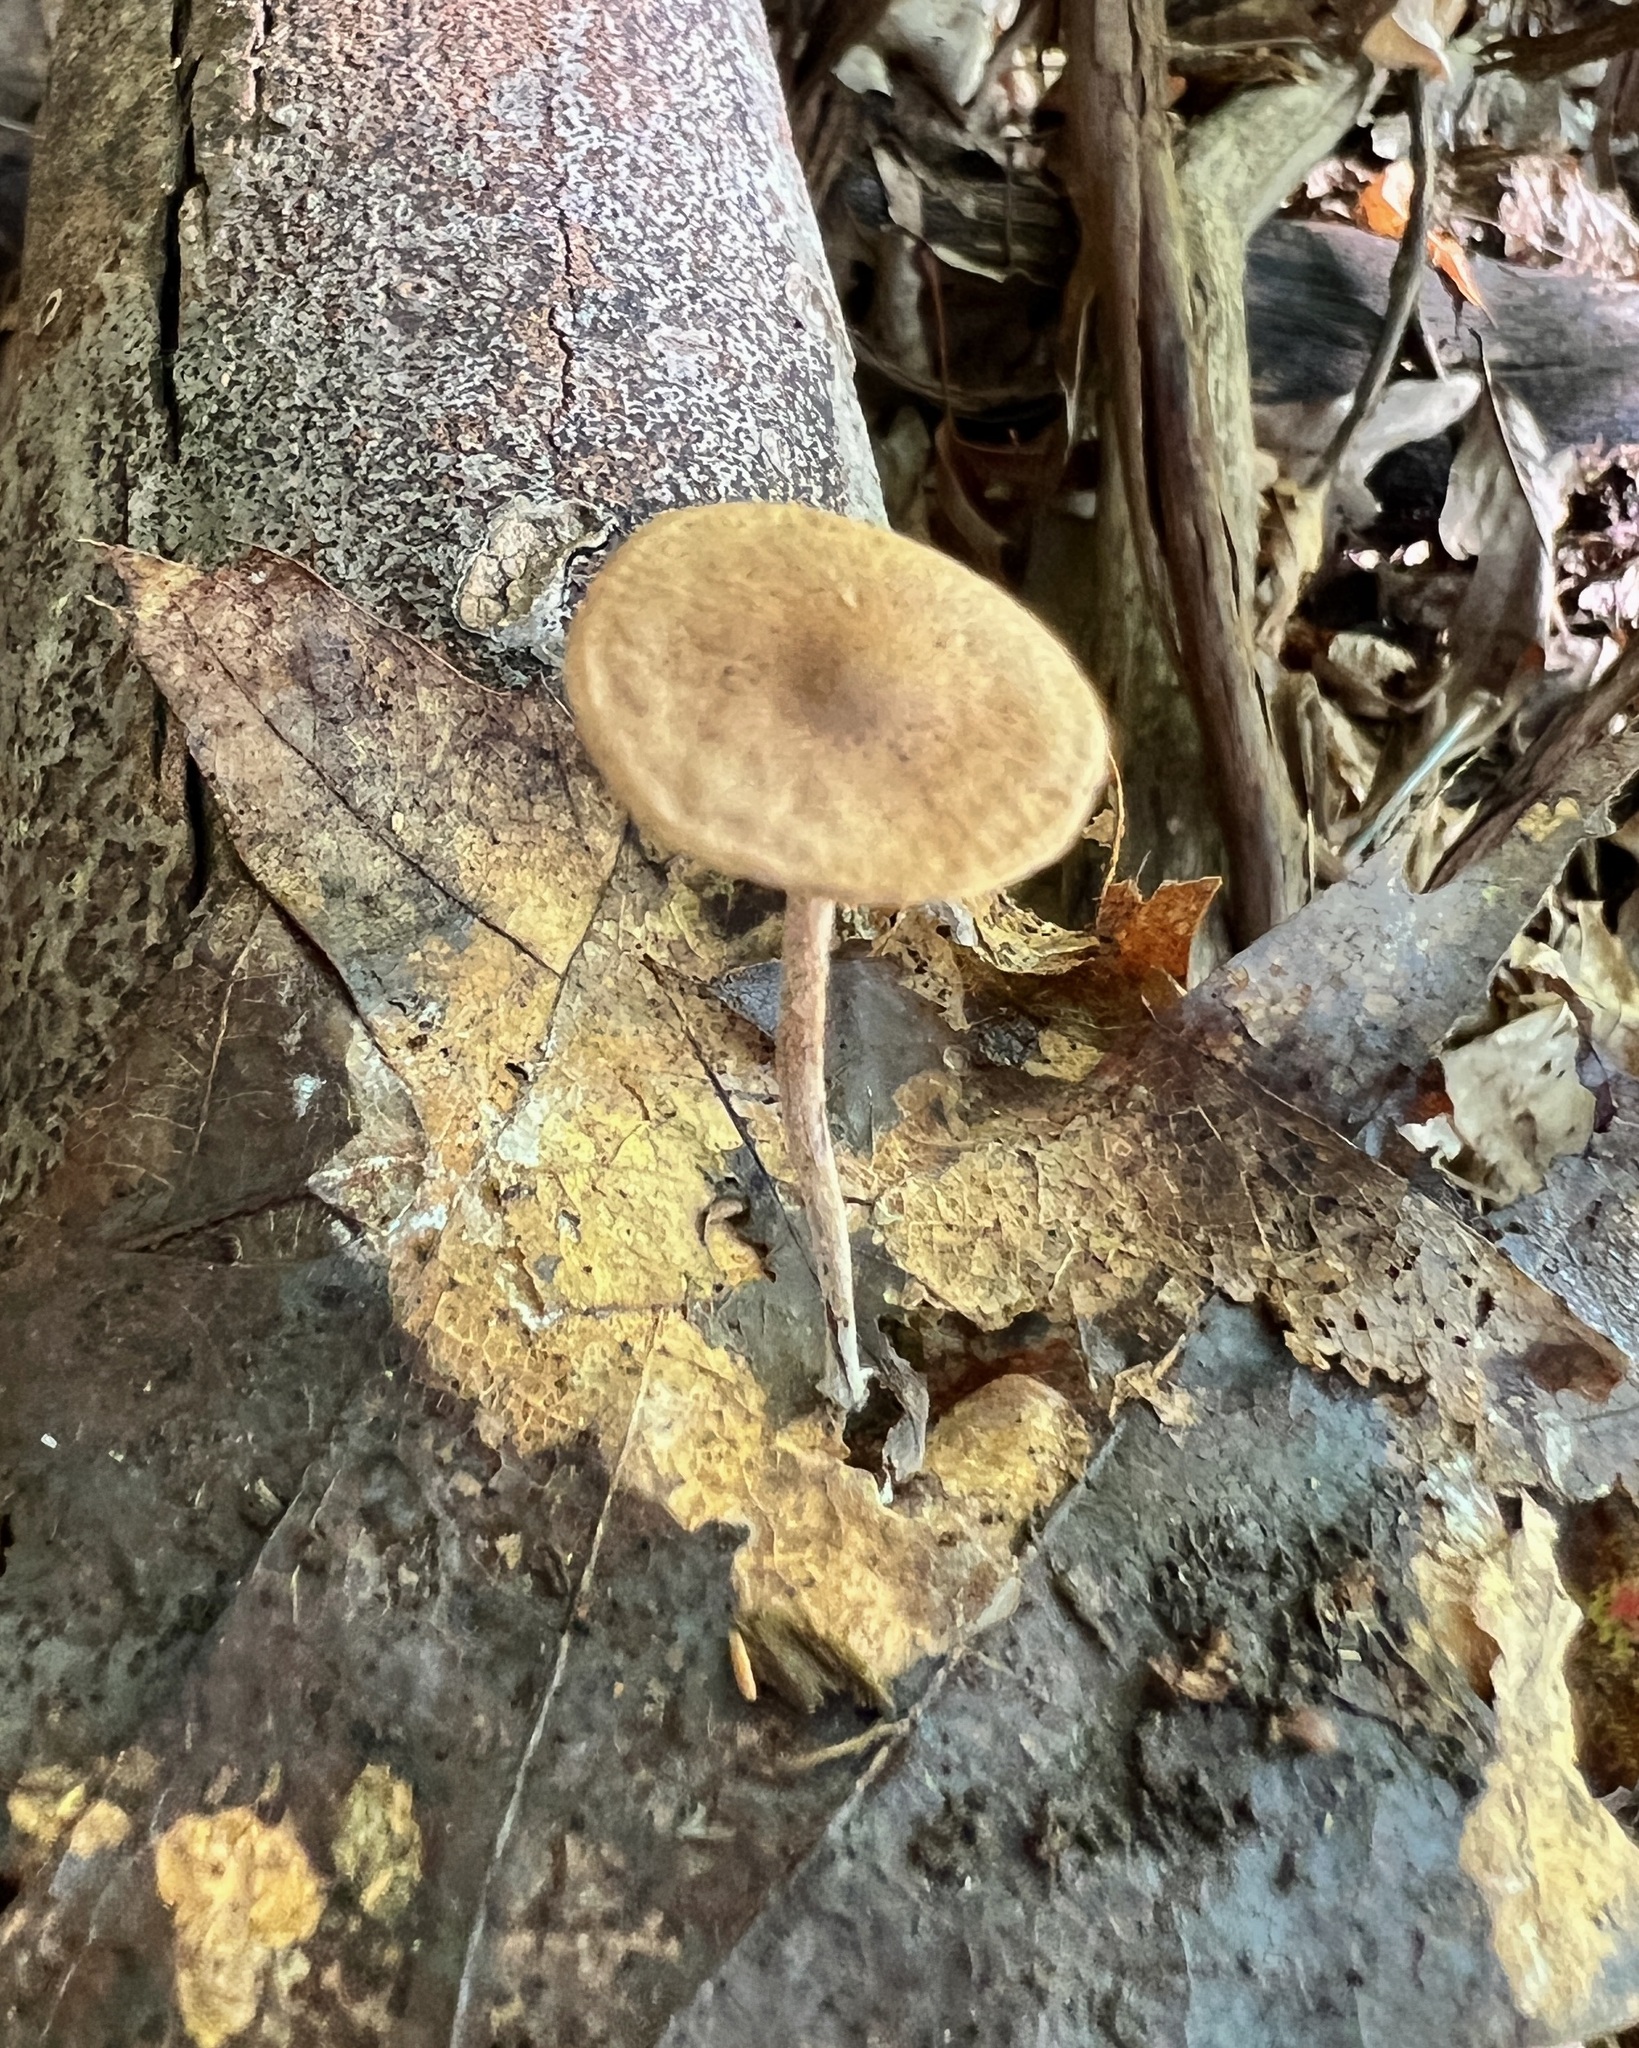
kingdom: Fungi
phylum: Basidiomycota
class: Agaricomycetes
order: Agaricales
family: Omphalotaceae
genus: Collybiopsis
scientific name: Collybiopsis subnuda
